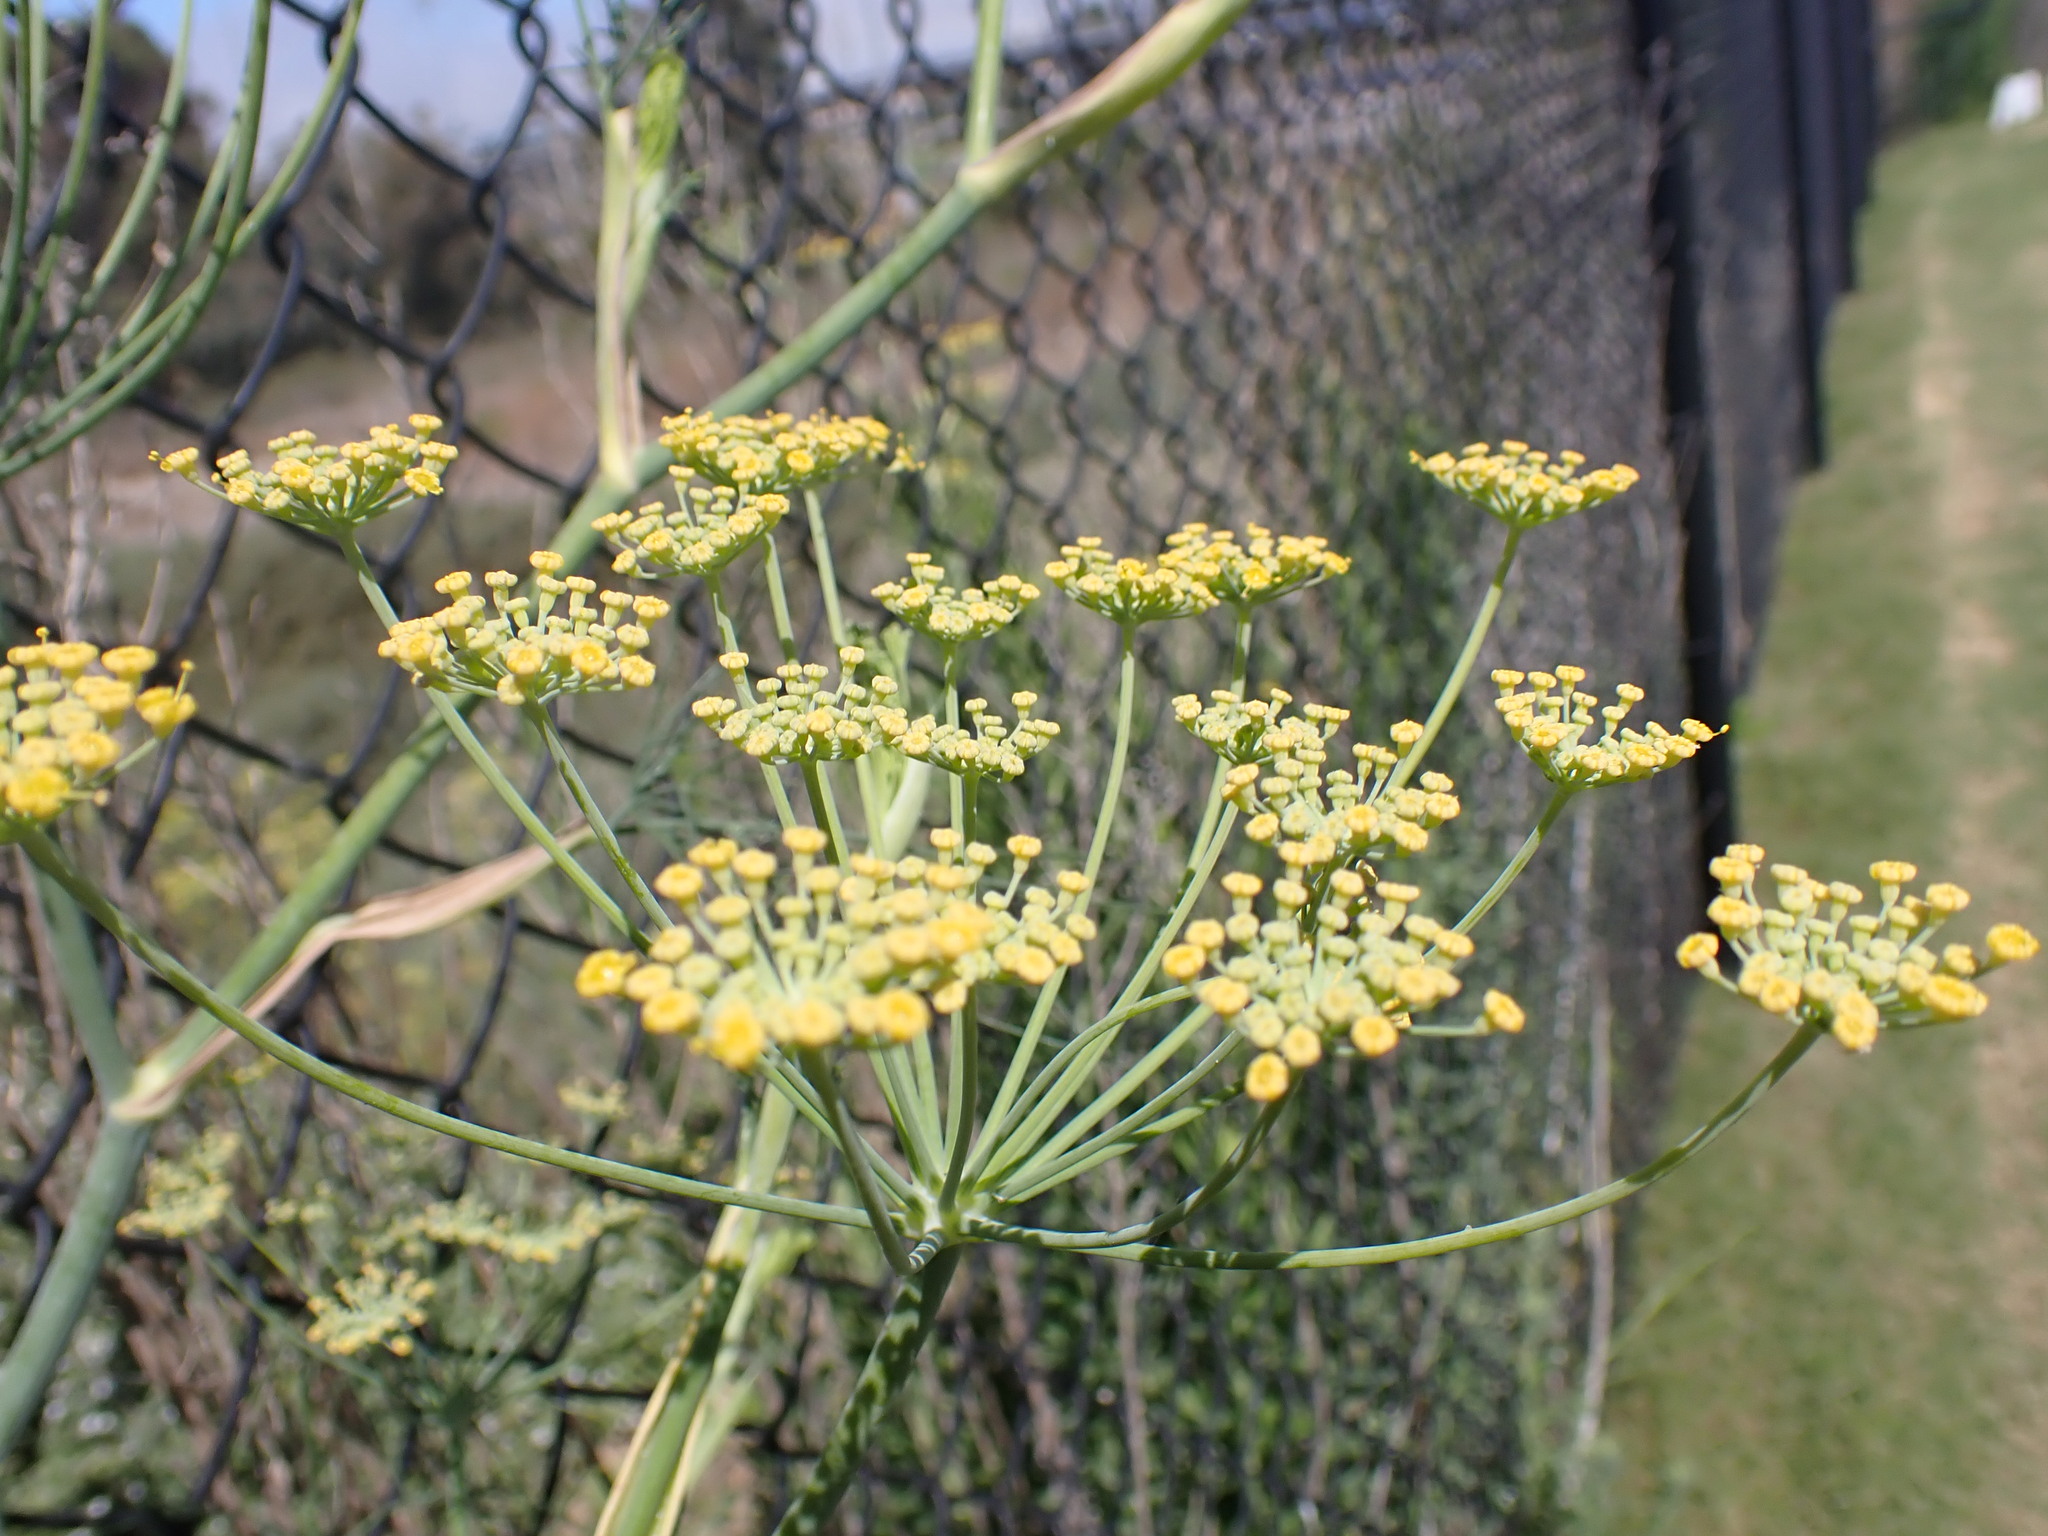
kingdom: Plantae
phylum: Tracheophyta
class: Magnoliopsida
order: Apiales
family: Apiaceae
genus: Foeniculum
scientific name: Foeniculum vulgare
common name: Fennel
